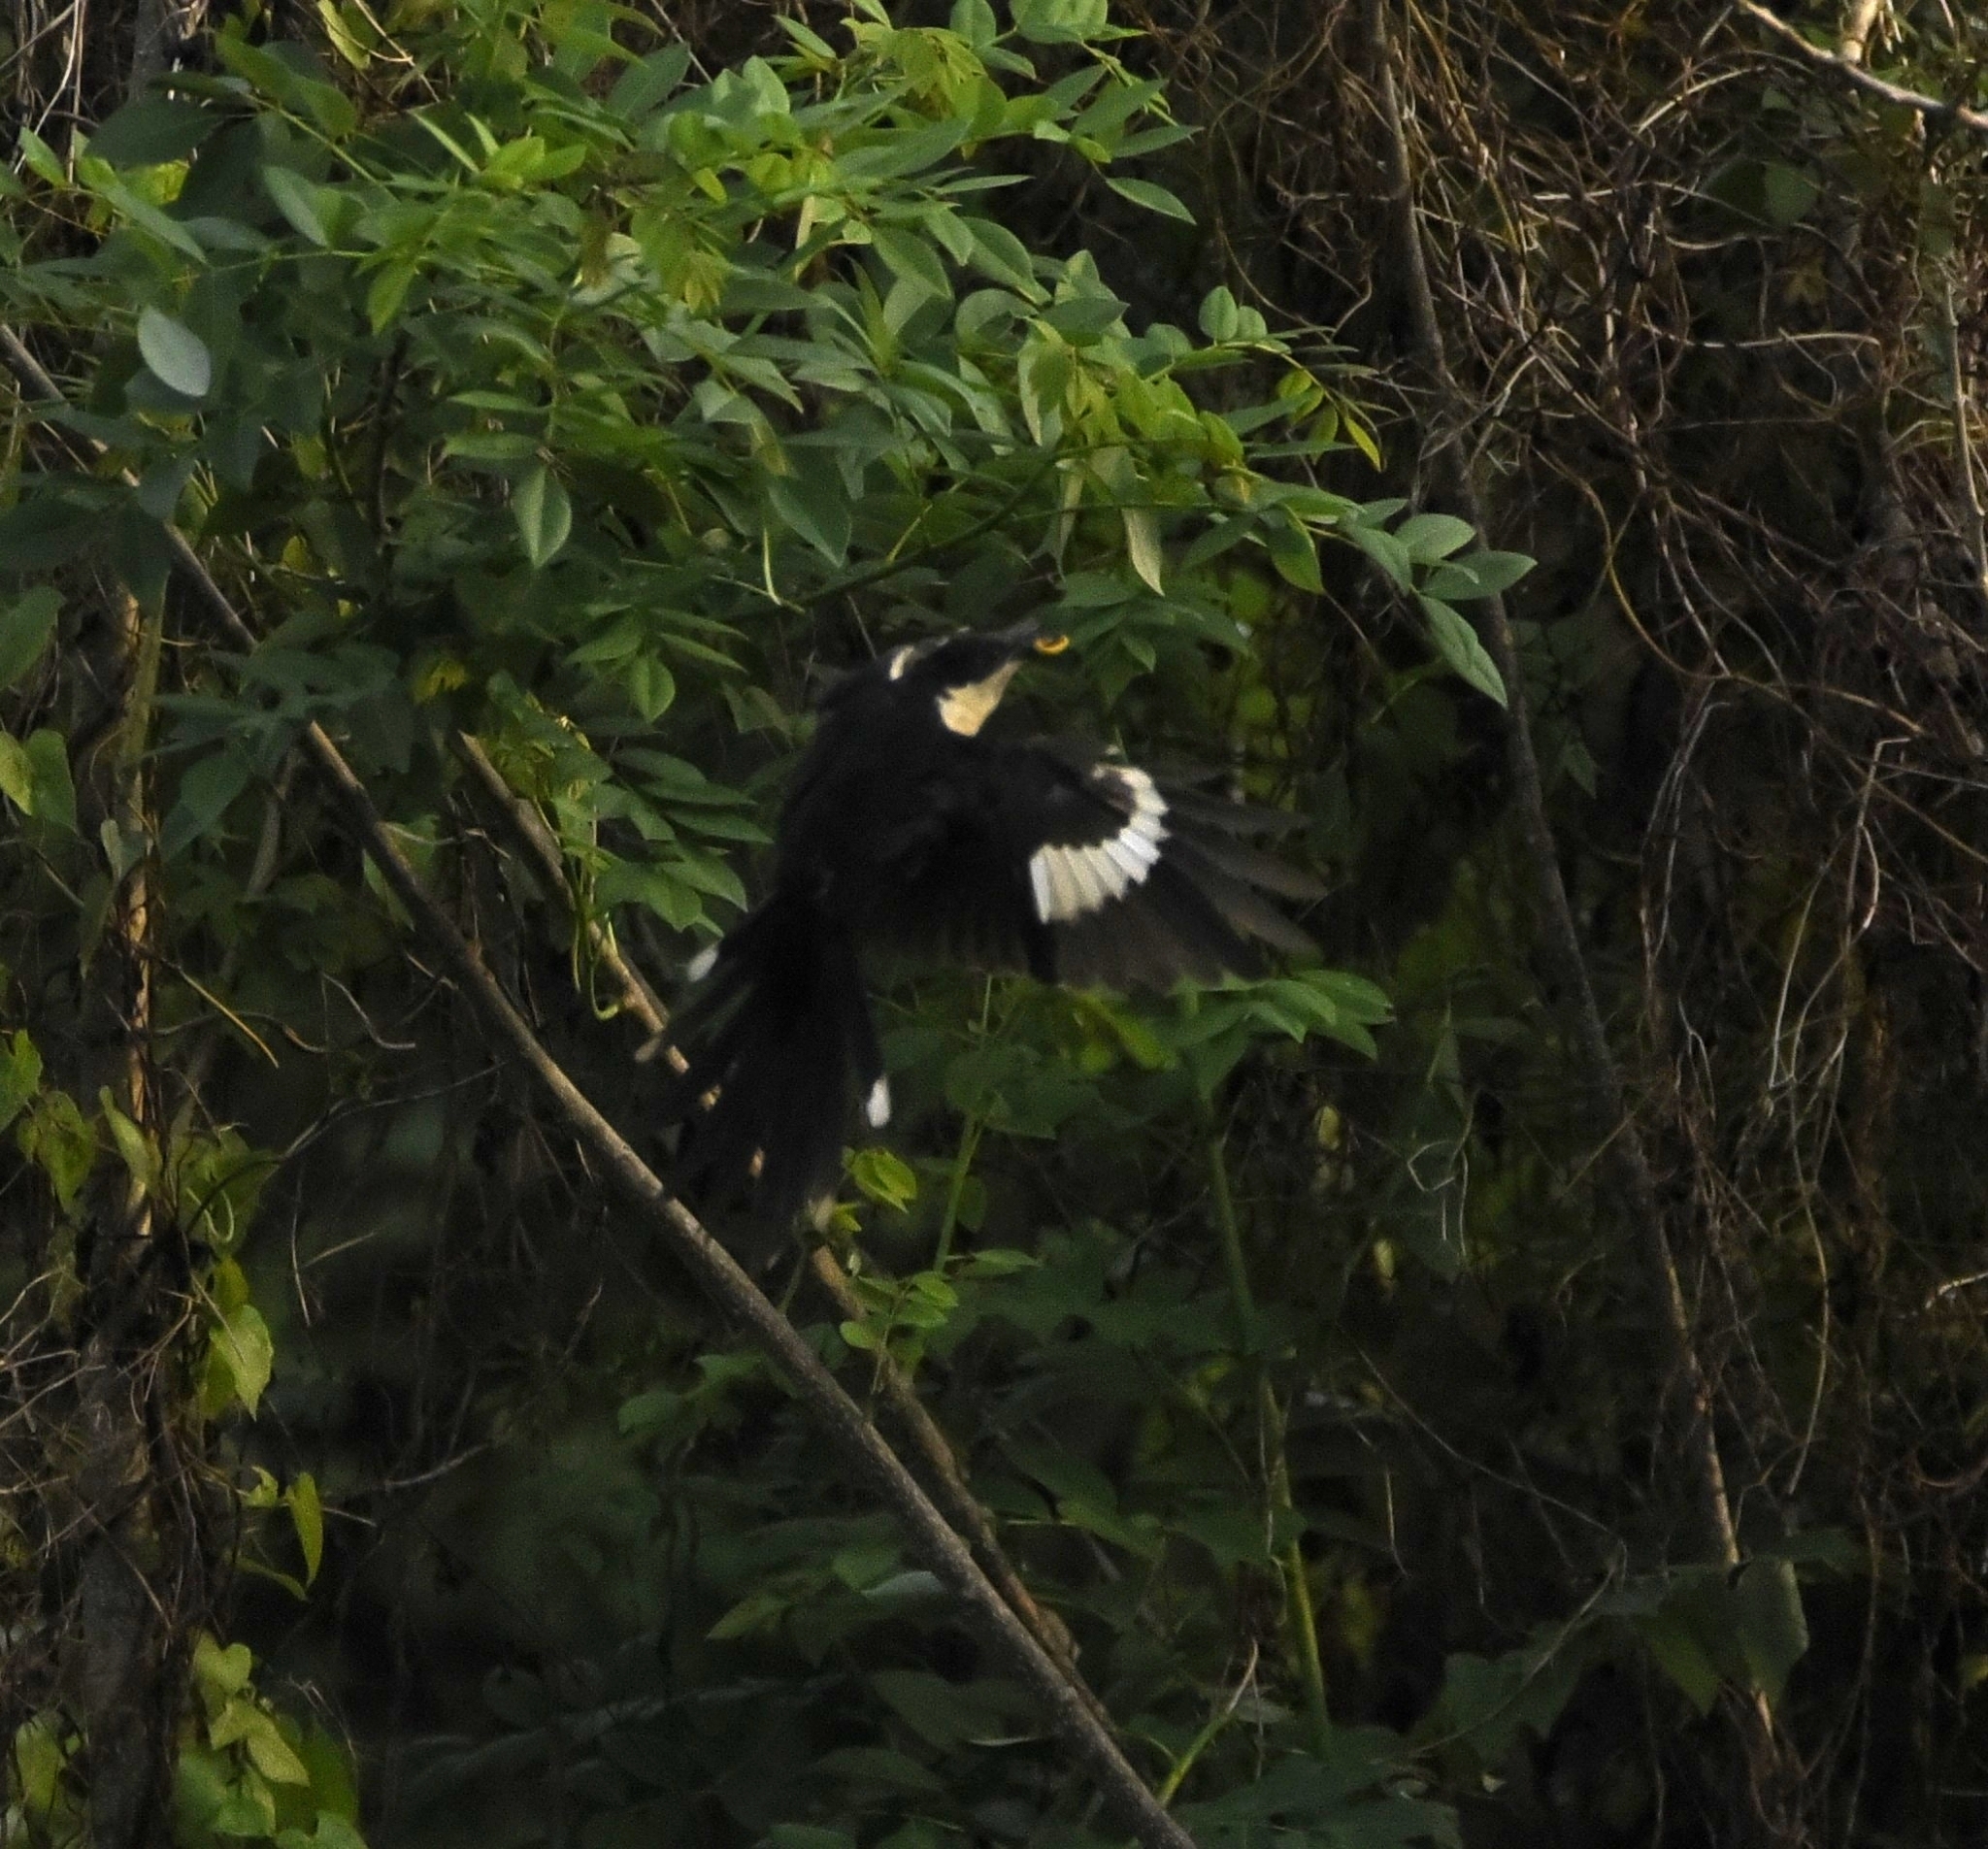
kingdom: Animalia
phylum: Chordata
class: Aves
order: Cuculiformes
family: Cuculidae
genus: Clamator
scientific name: Clamator jacobinus
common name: Jacobin cuckoo
